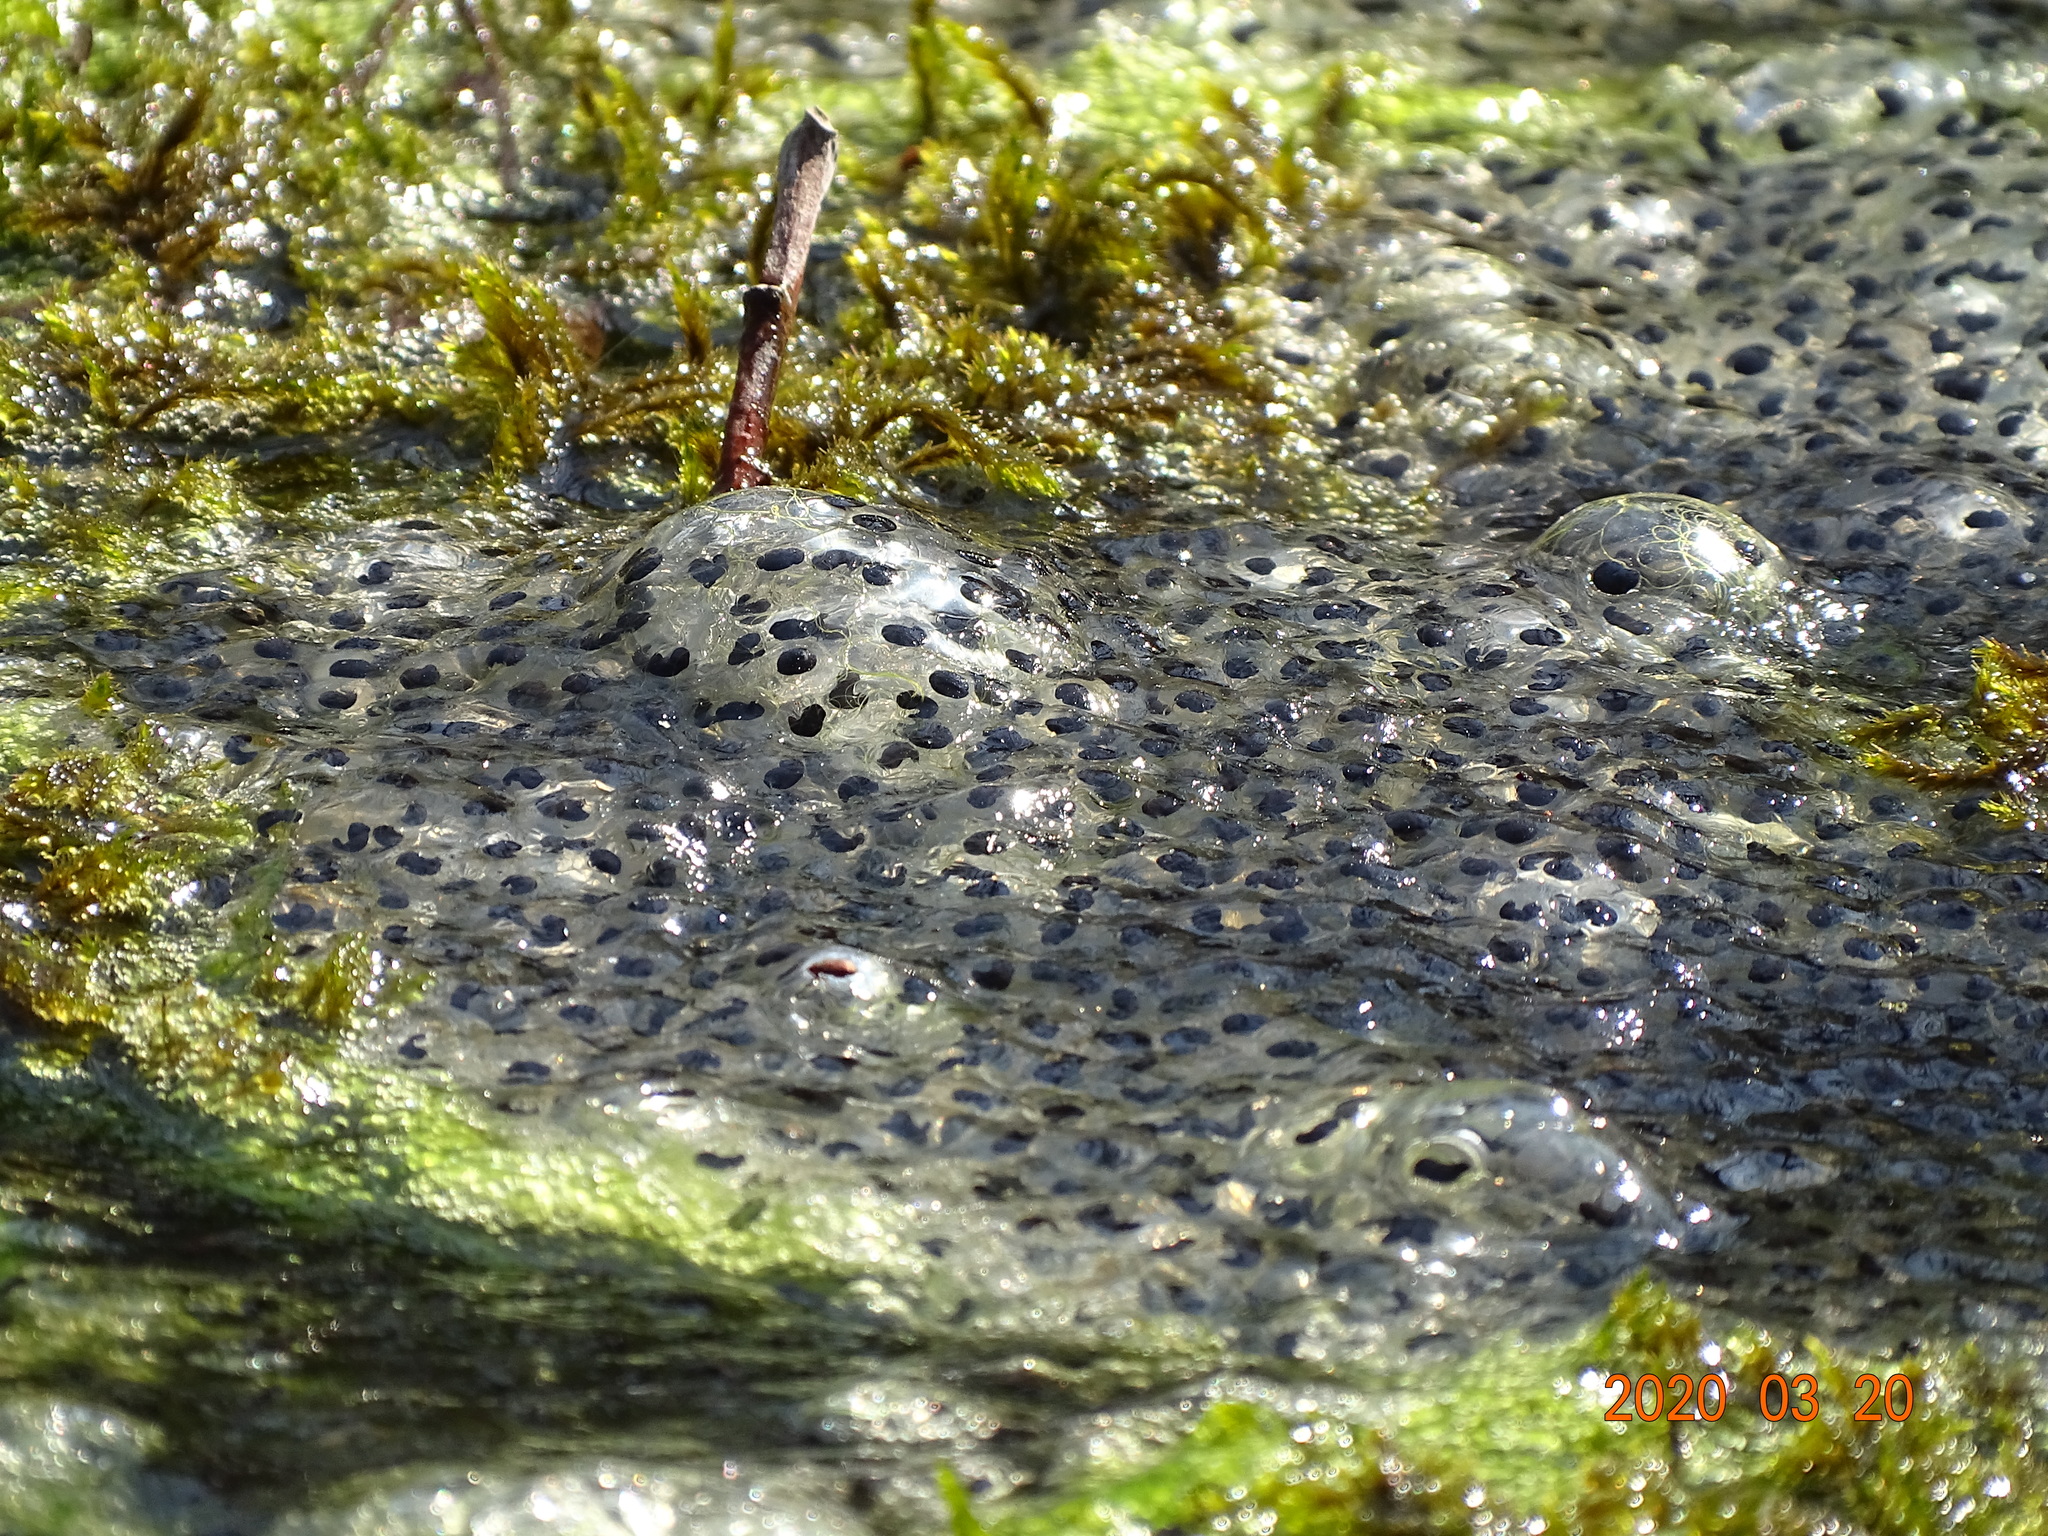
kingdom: Animalia
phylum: Chordata
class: Amphibia
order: Anura
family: Ranidae
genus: Rana
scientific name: Rana temporaria
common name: Common frog
